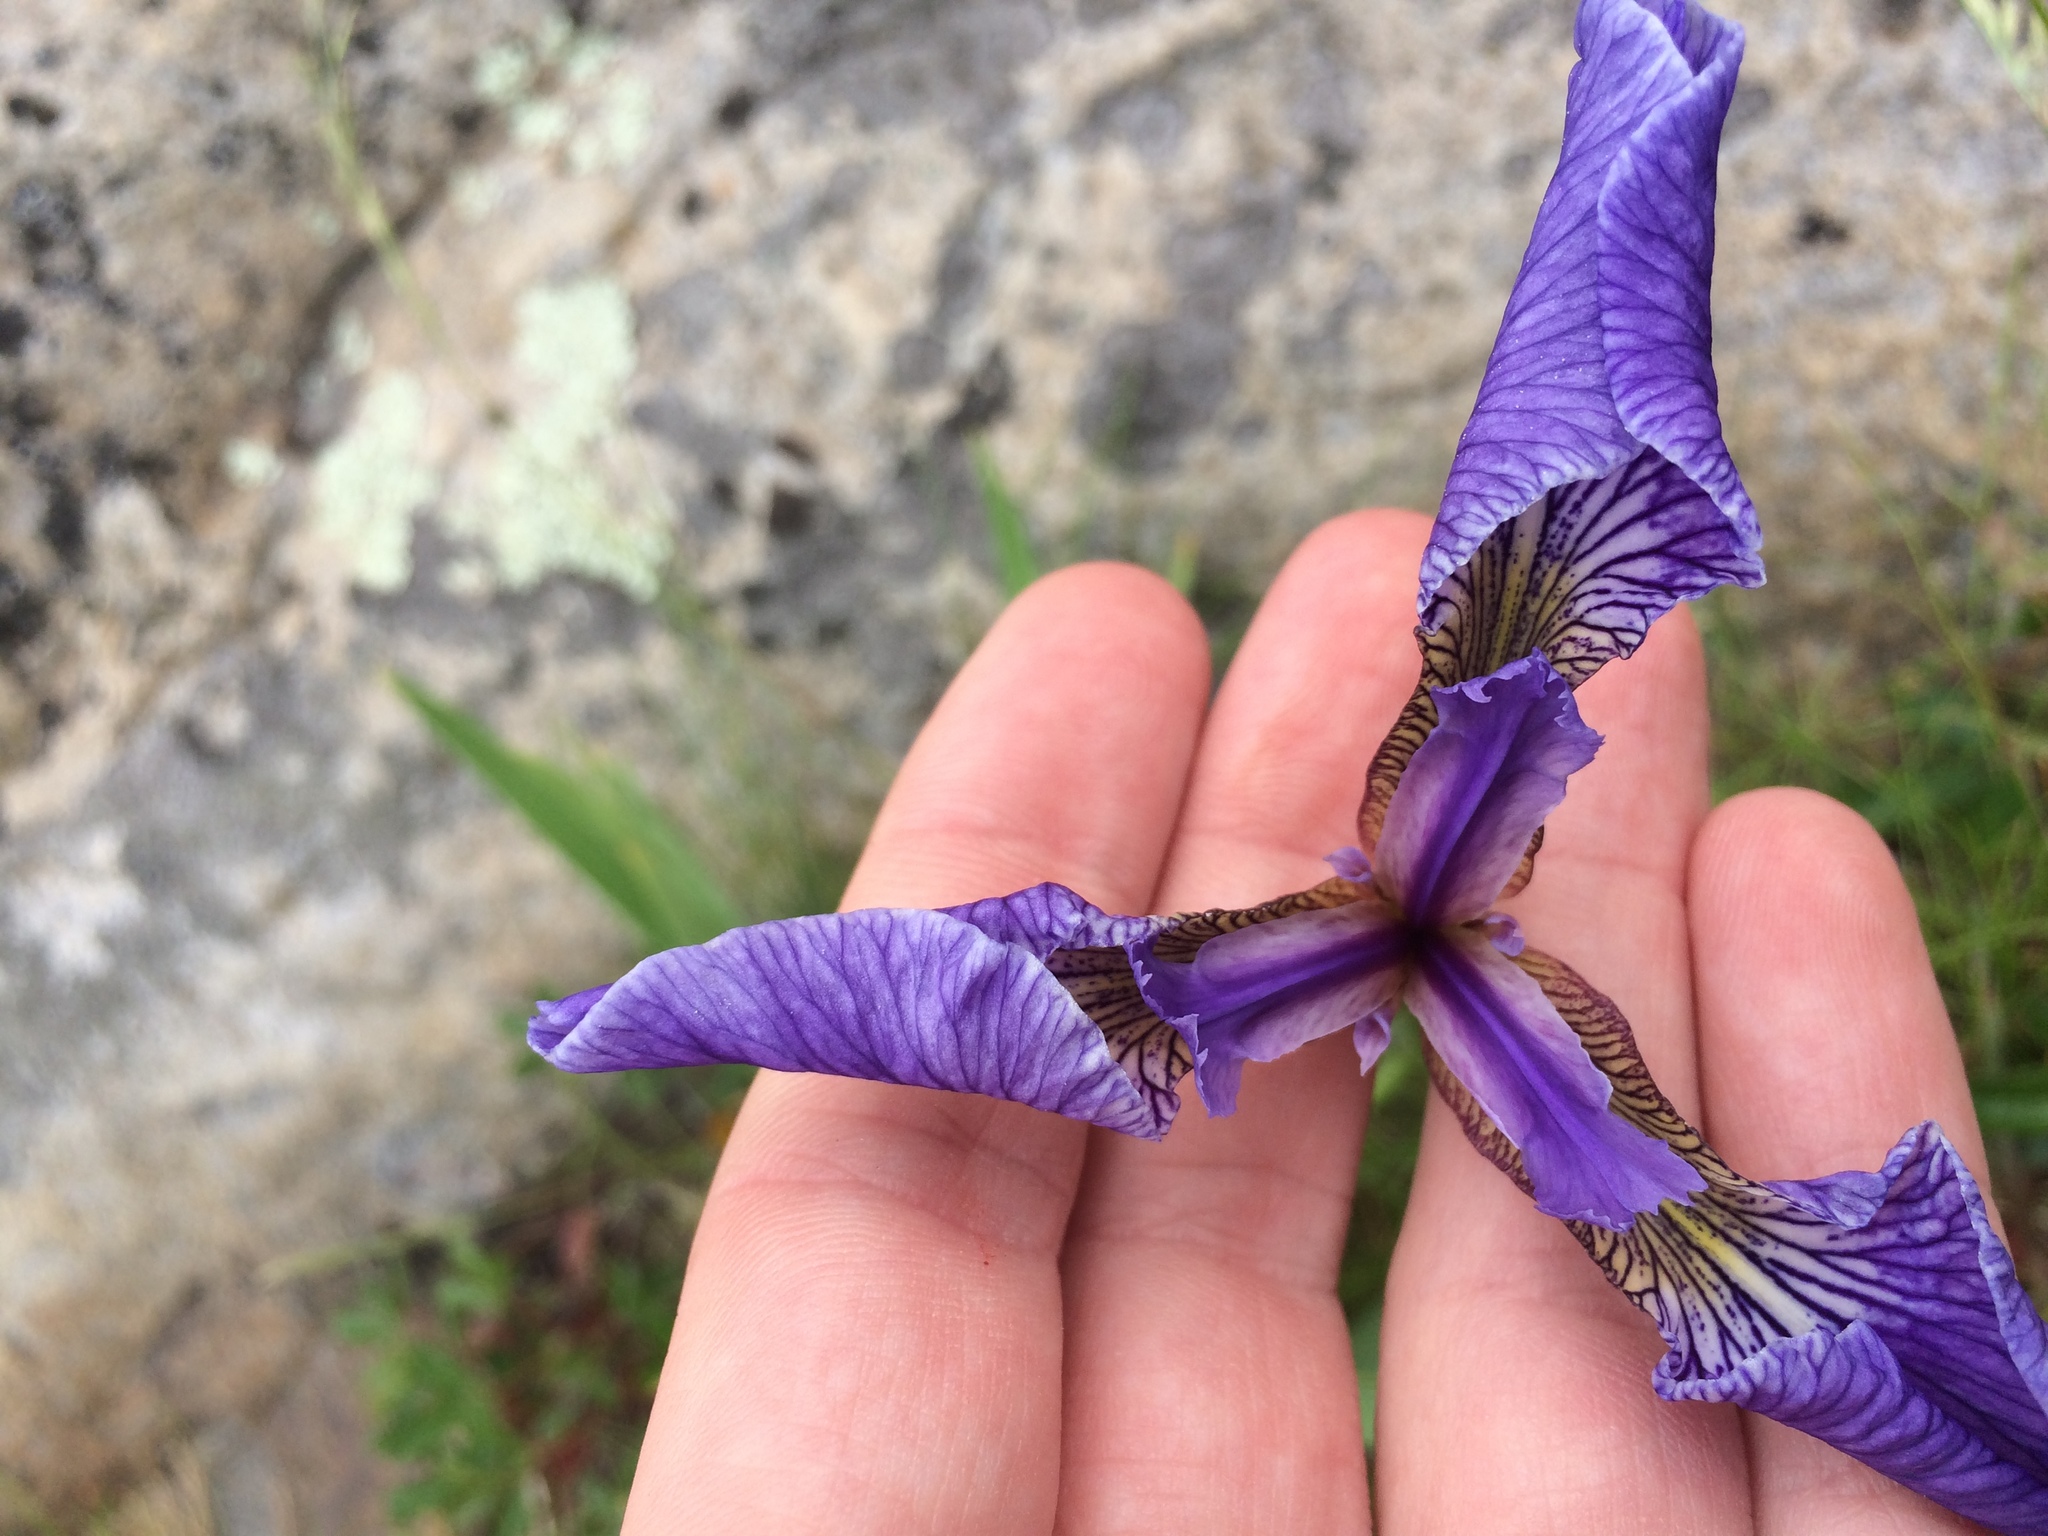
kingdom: Plantae
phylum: Tracheophyta
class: Liliopsida
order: Asparagales
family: Iridaceae
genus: Iris
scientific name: Iris hookeri
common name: Canada beach-head iris
